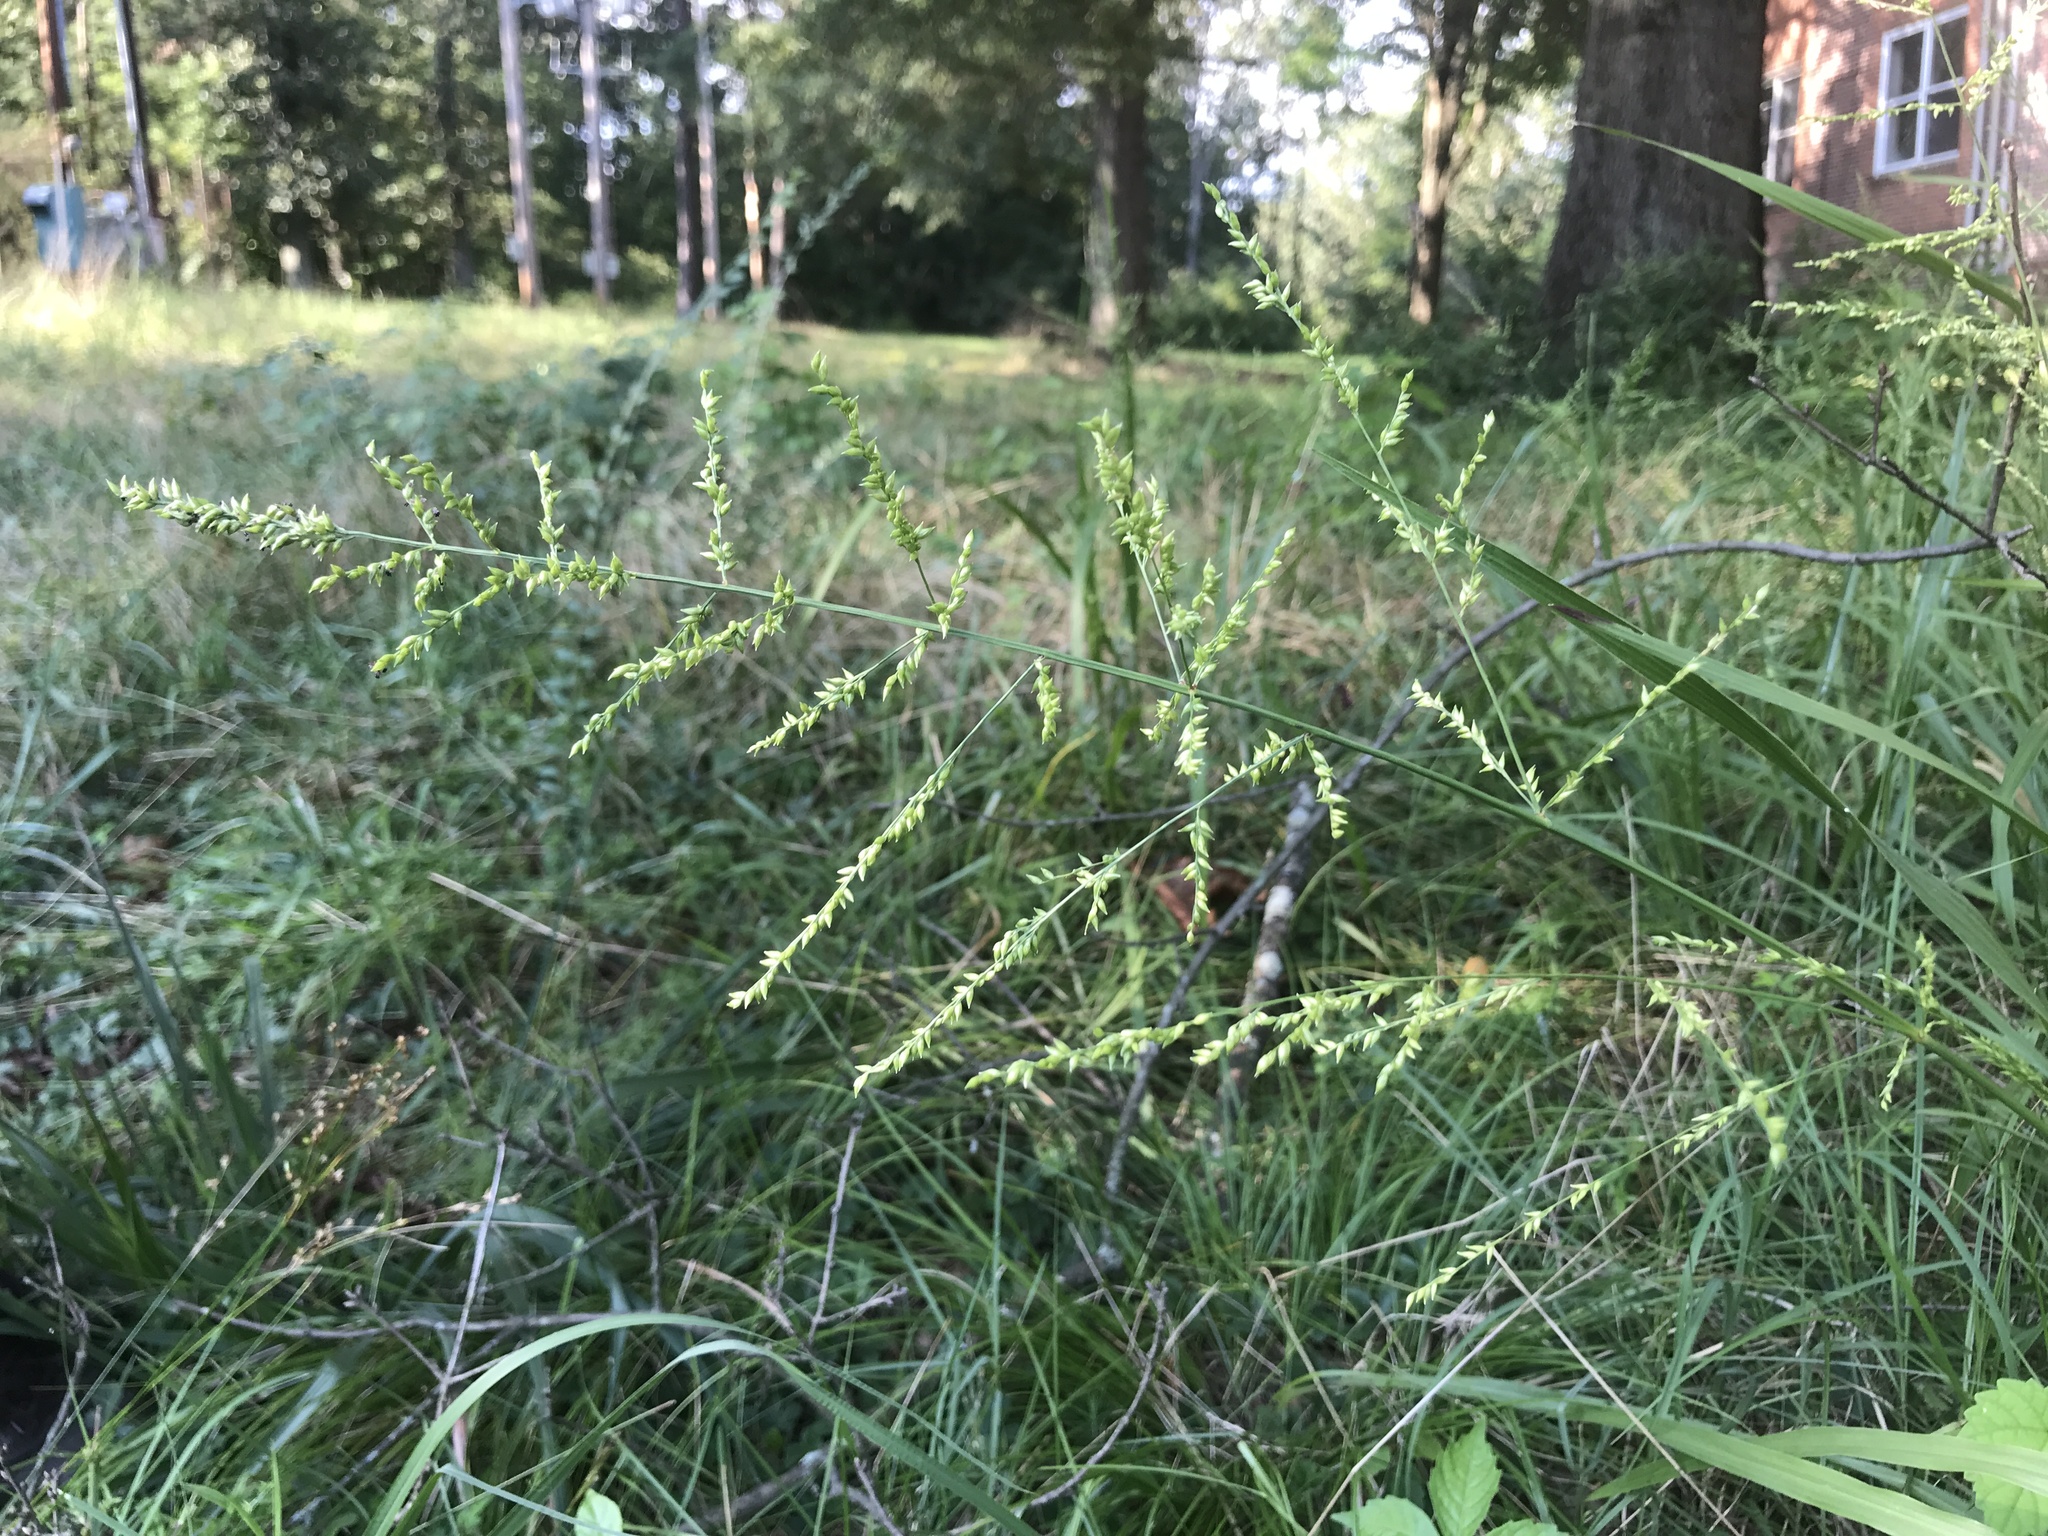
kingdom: Plantae
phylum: Tracheophyta
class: Liliopsida
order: Poales
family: Poaceae
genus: Coleataenia
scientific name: Coleataenia anceps
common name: Beaked panic grass
